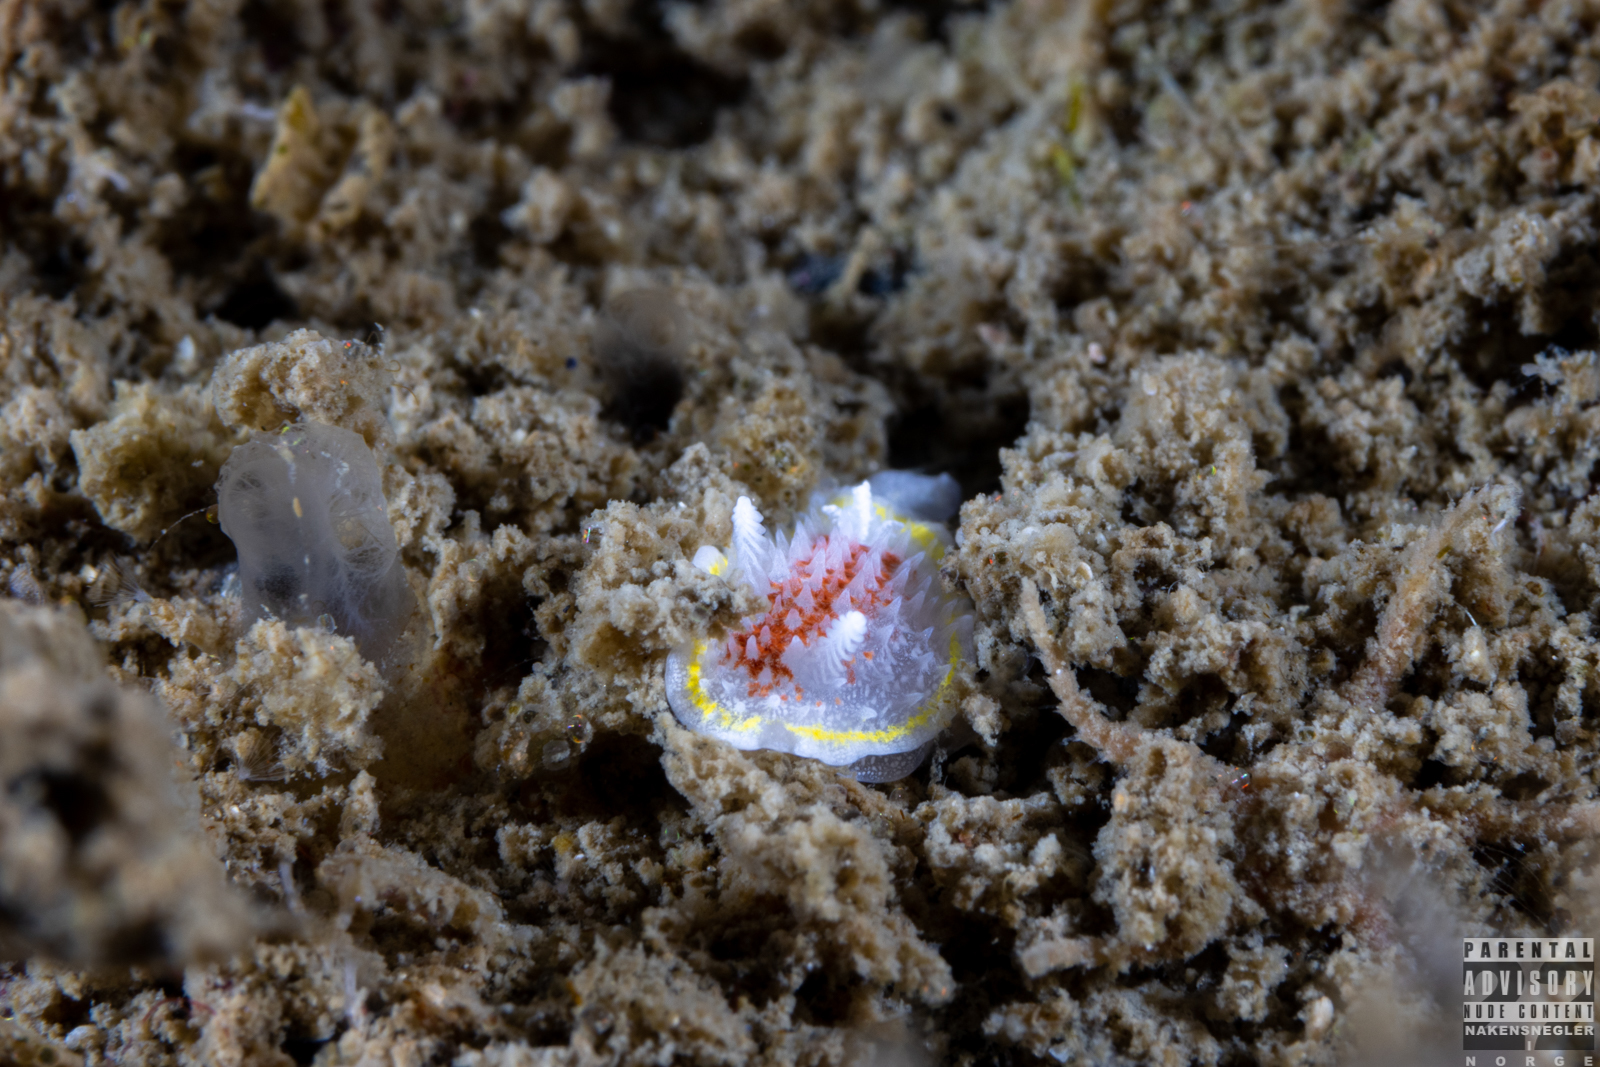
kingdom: Animalia
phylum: Mollusca
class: Gastropoda
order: Nudibranchia
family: Calycidorididae
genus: Diaphorodoris
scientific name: Diaphorodoris luteocincta
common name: Fried egg nudibranch
